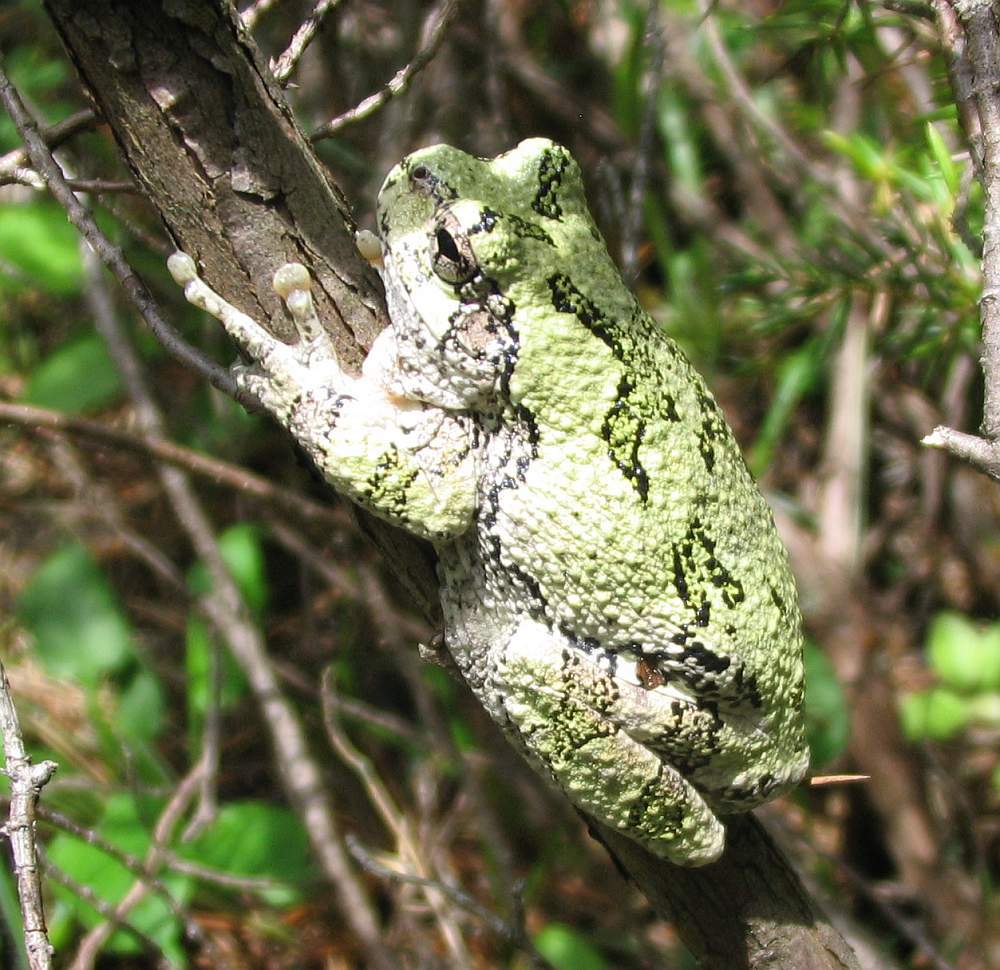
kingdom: Animalia
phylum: Chordata
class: Amphibia
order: Anura
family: Hylidae
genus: Dryophytes
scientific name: Dryophytes versicolor
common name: Gray treefrog
